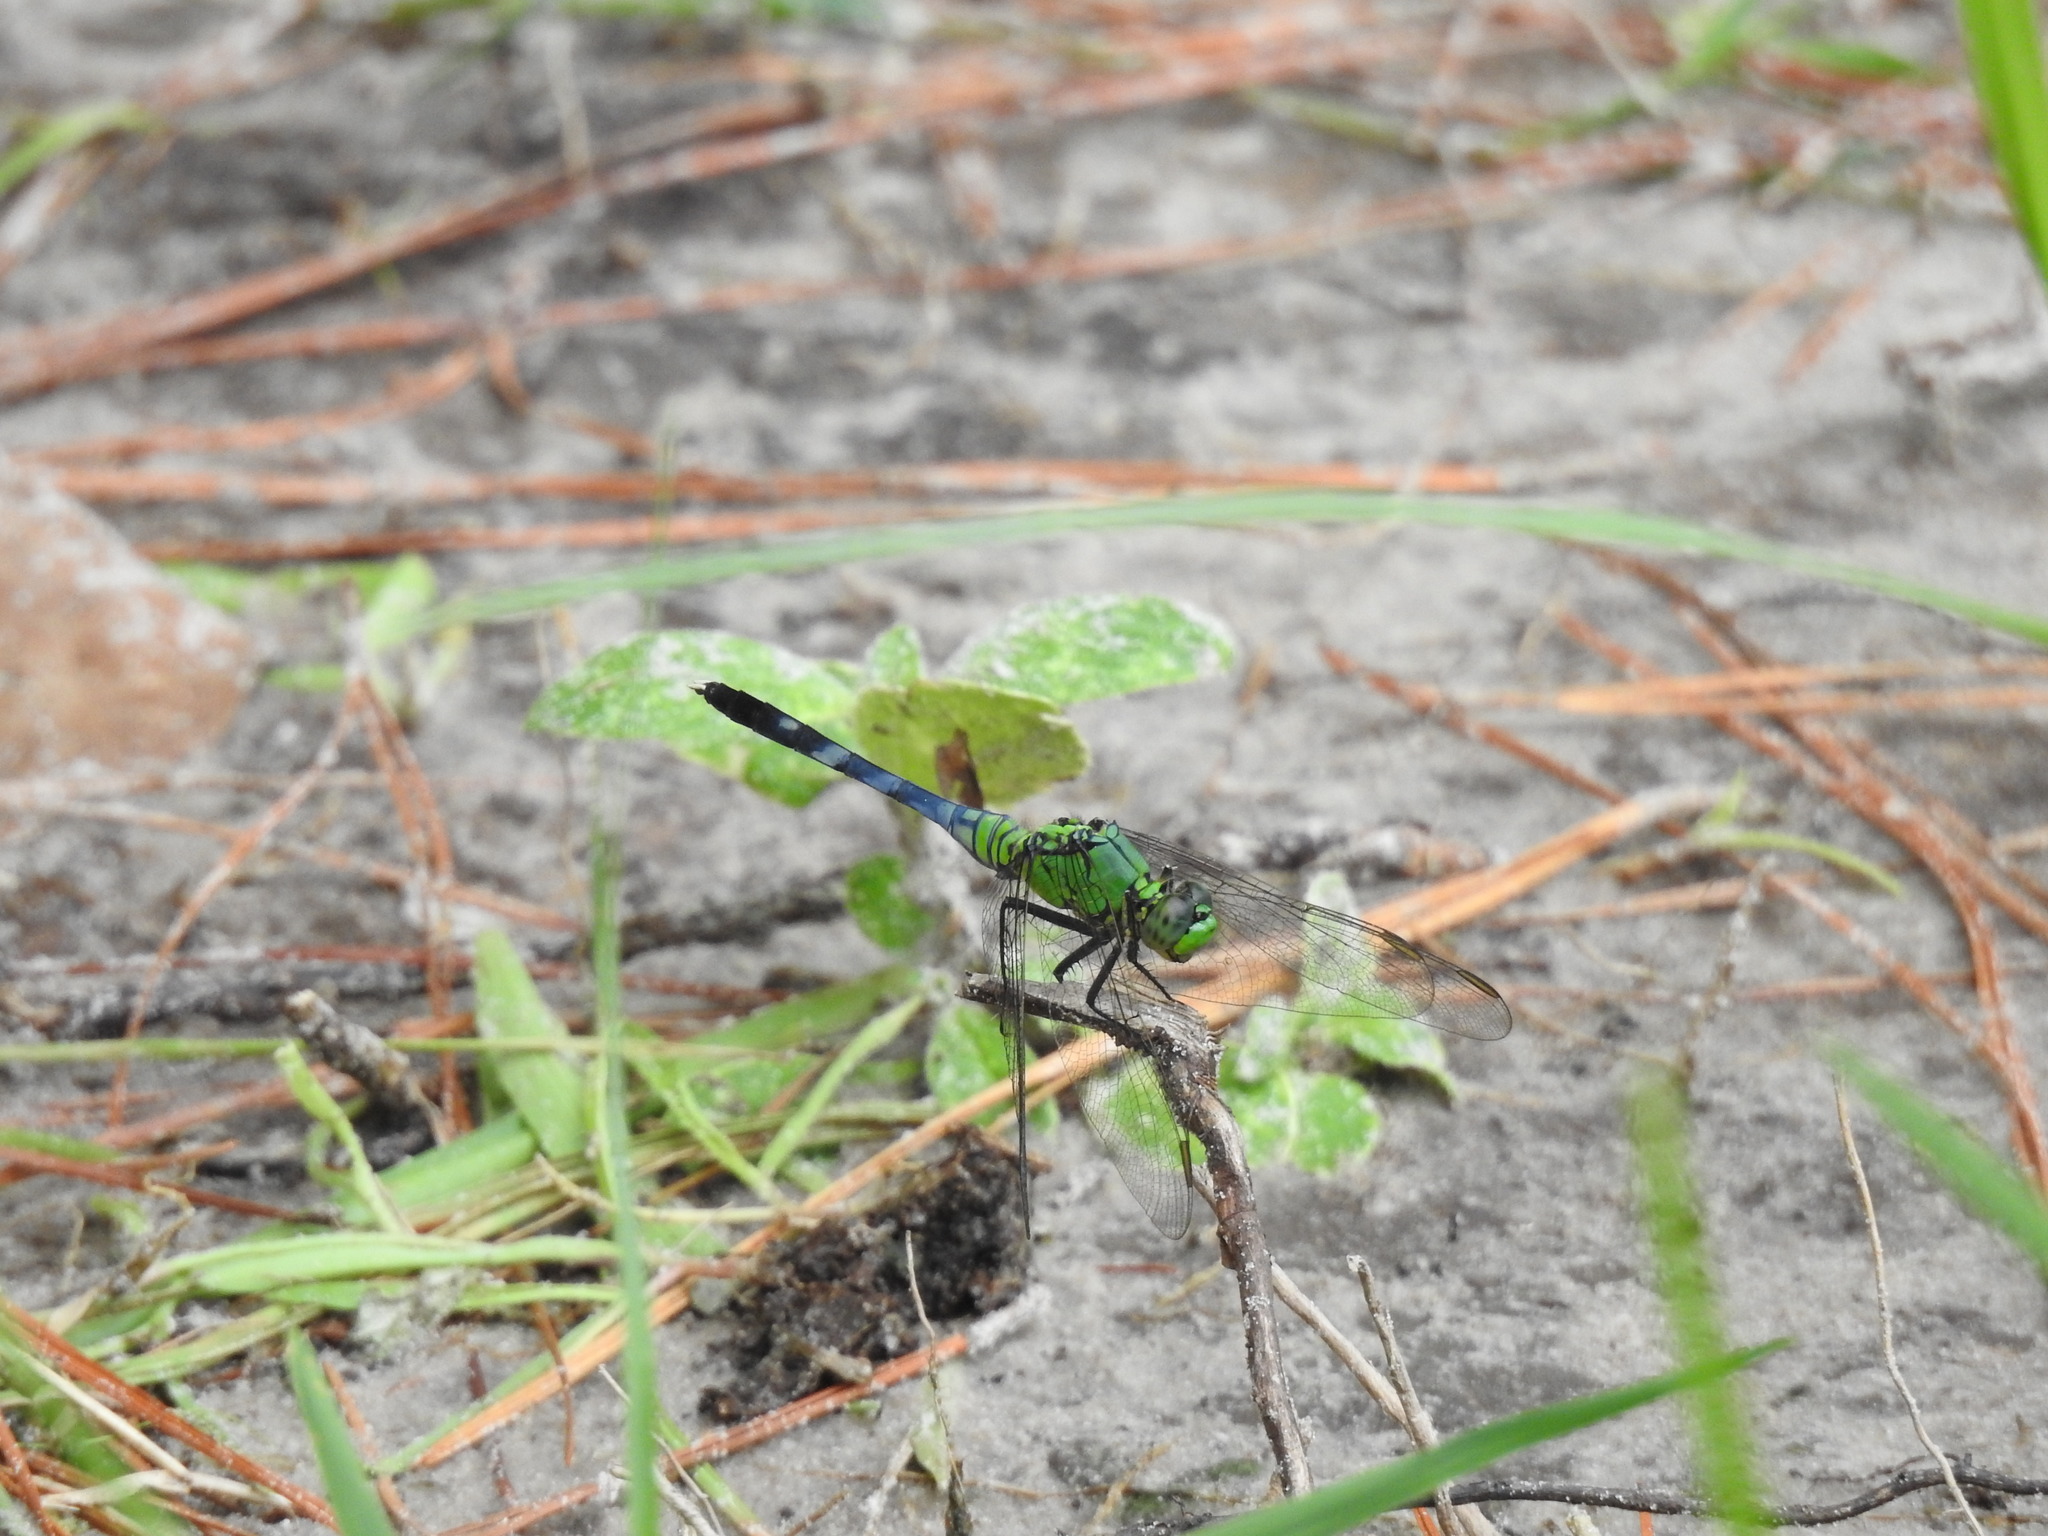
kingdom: Animalia
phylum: Arthropoda
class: Insecta
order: Odonata
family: Libellulidae
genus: Erythemis
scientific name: Erythemis simplicicollis
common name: Eastern pondhawk
